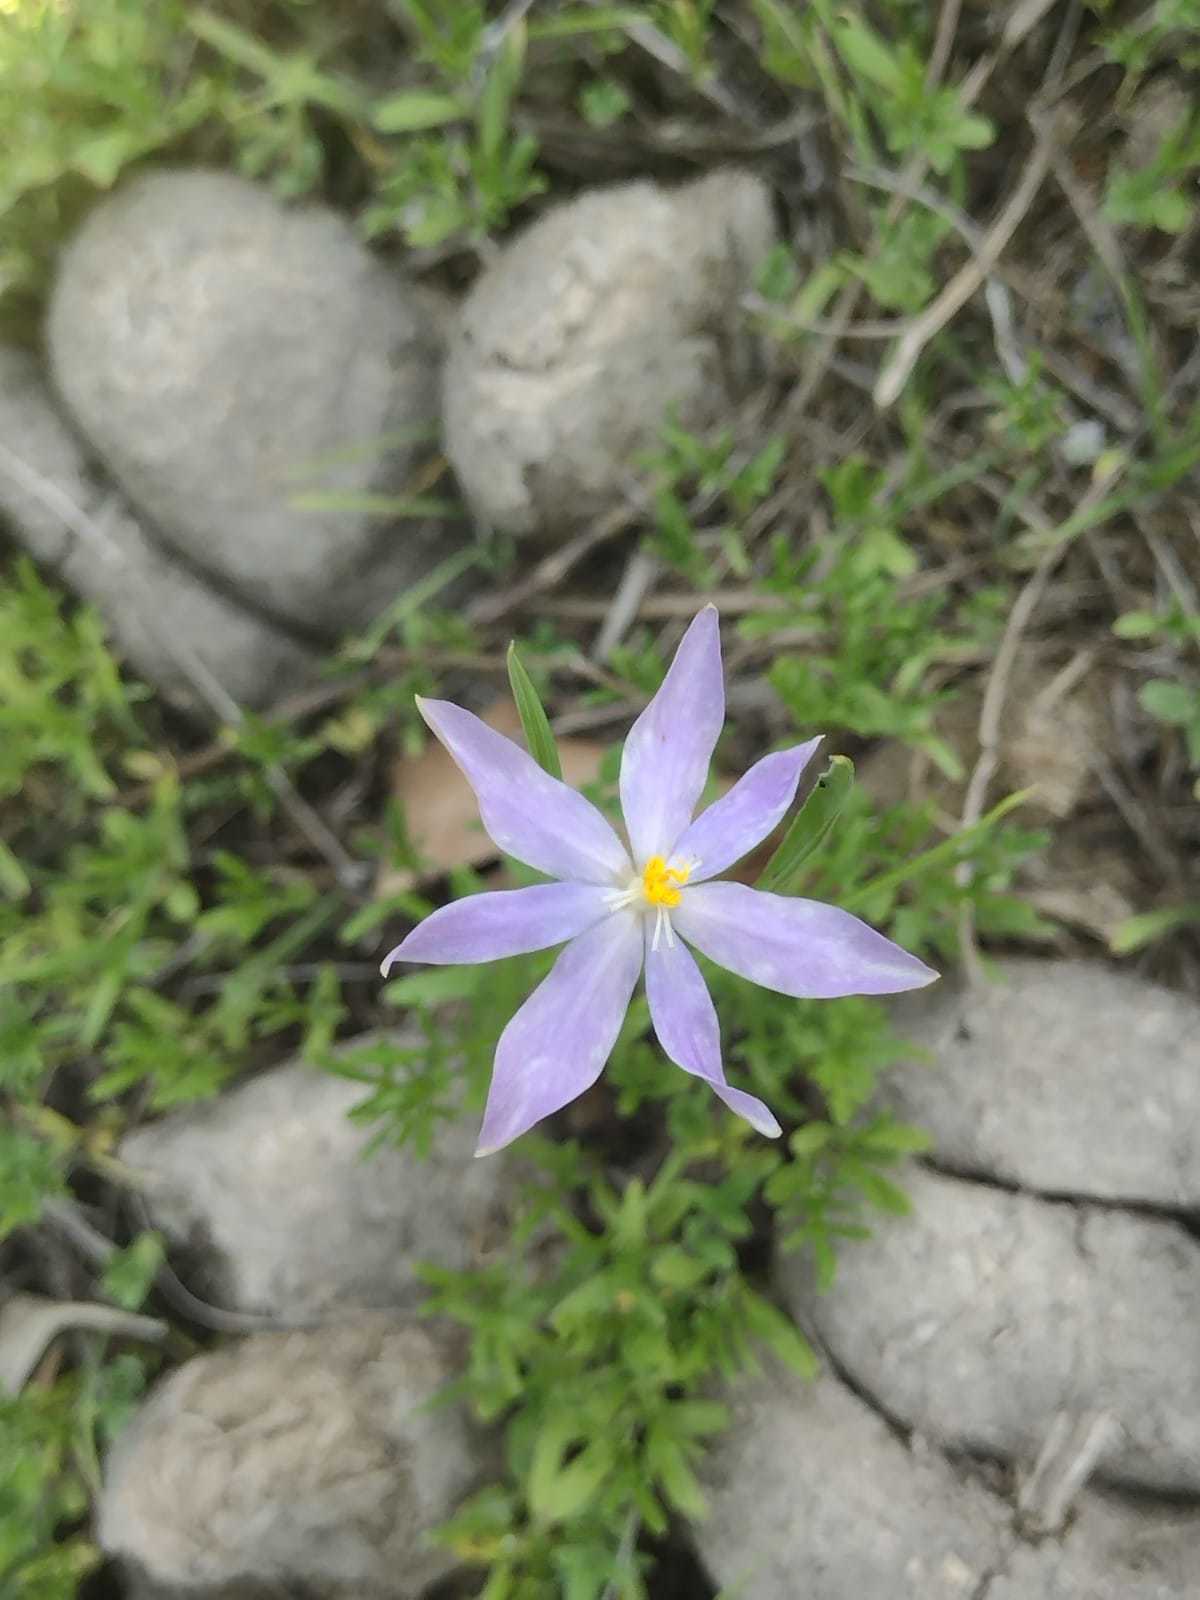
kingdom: Plantae
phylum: Tracheophyta
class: Liliopsida
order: Asparagales
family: Iridaceae
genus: Nemastylis
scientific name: Nemastylis tenuis
